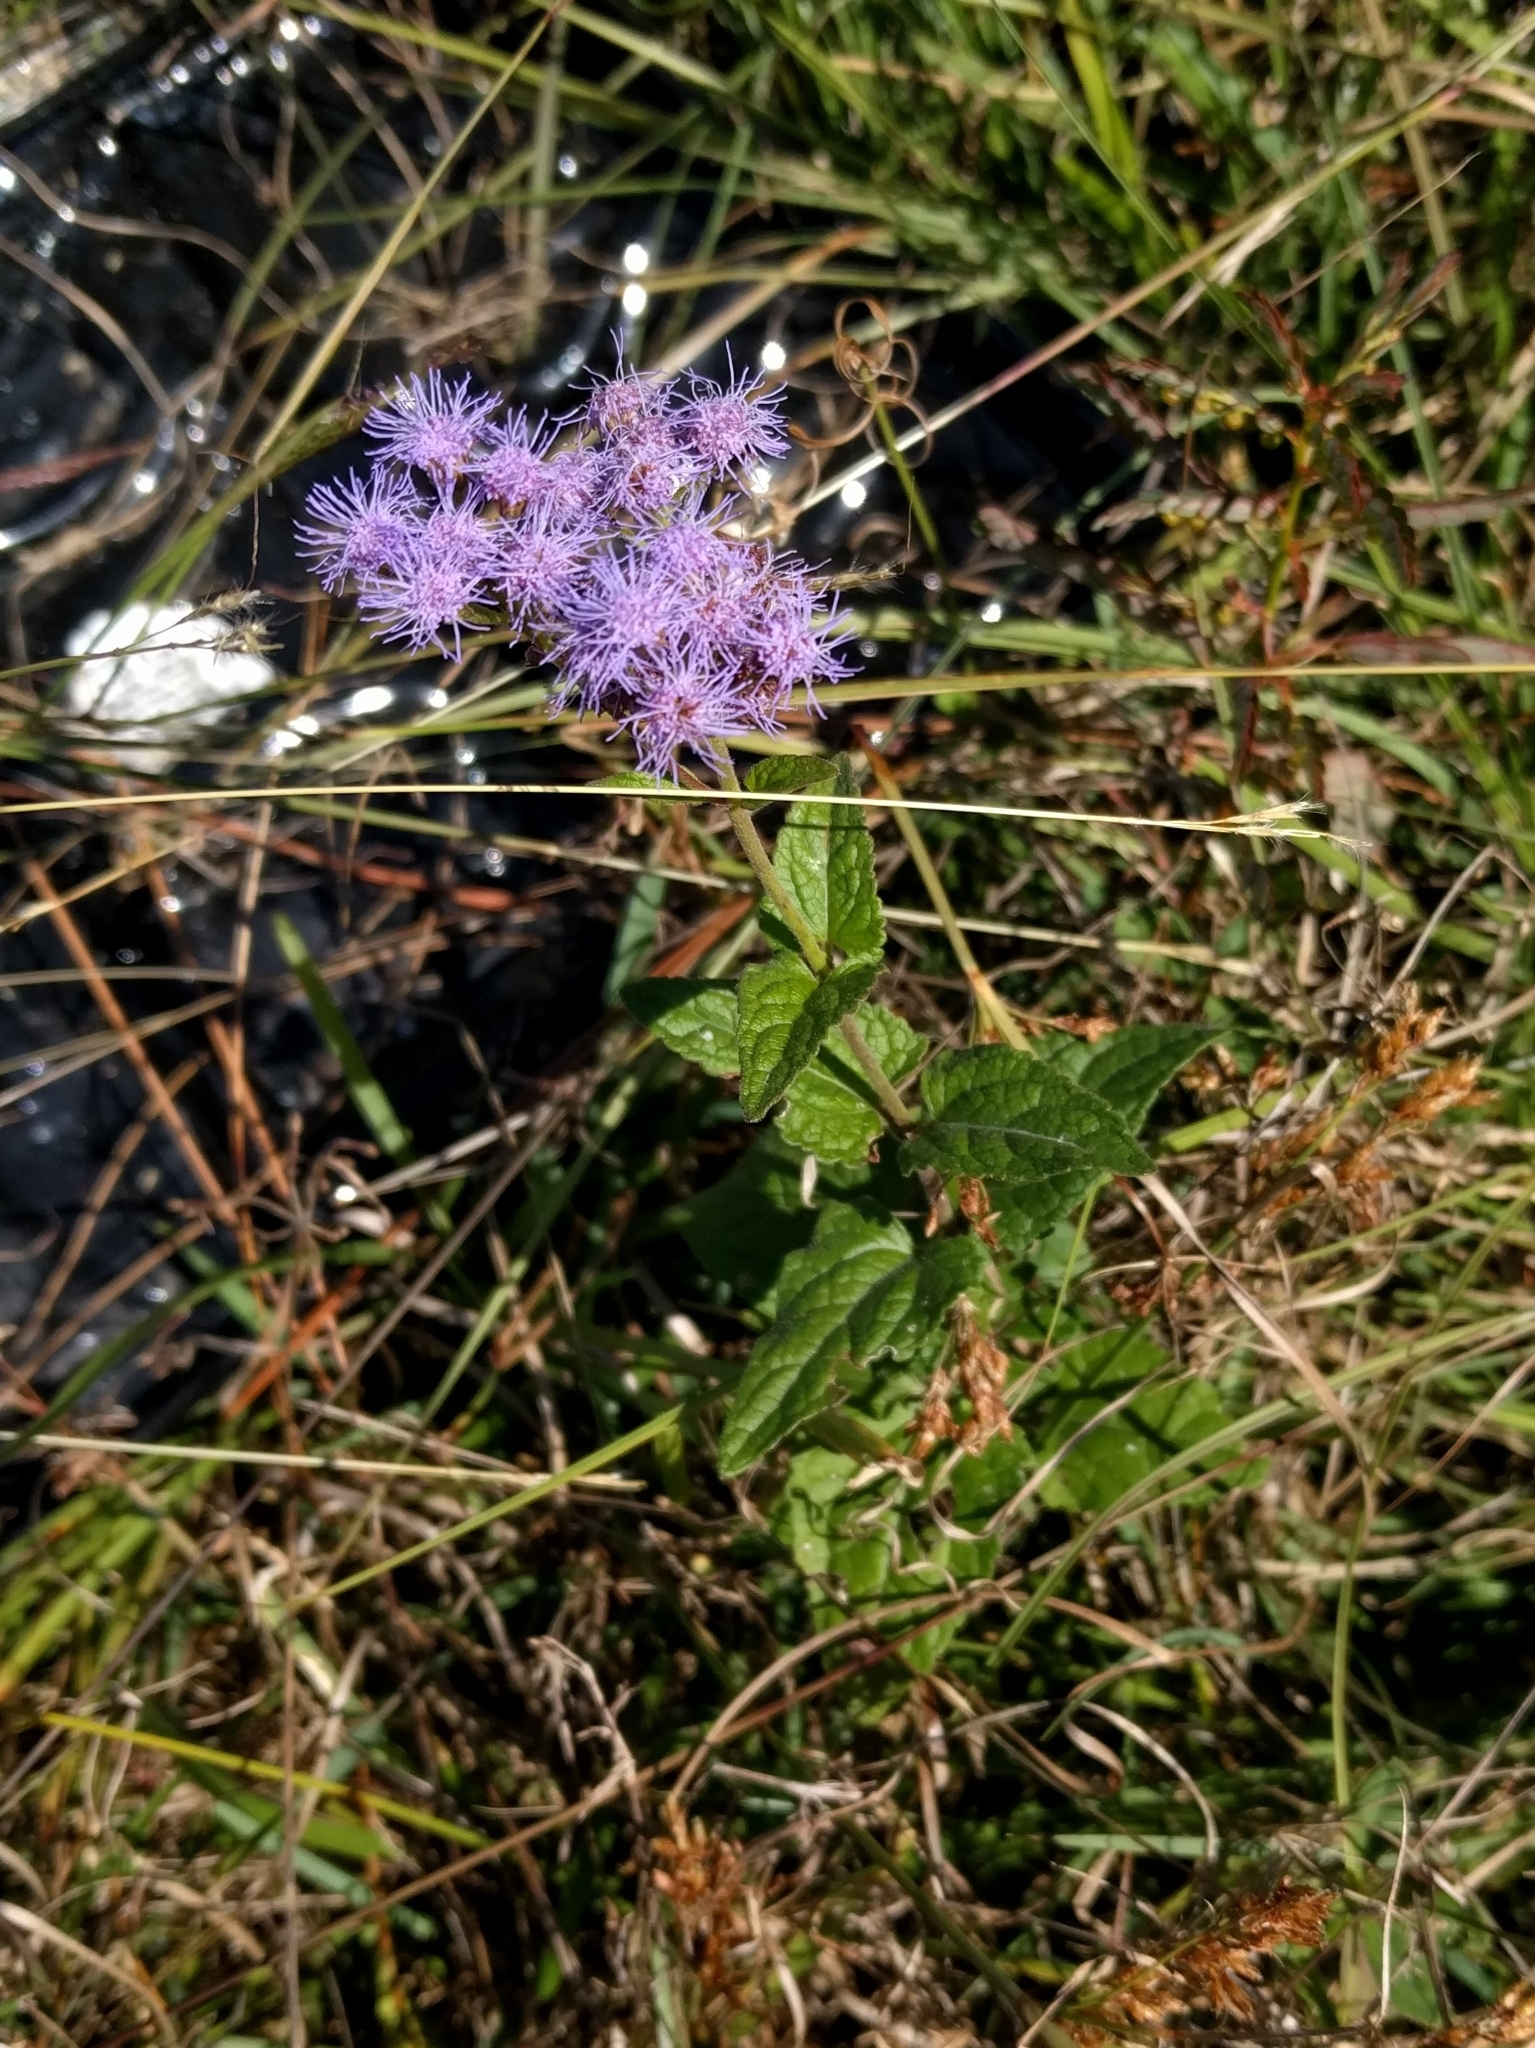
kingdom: Plantae
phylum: Tracheophyta
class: Magnoliopsida
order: Asterales
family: Asteraceae
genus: Conoclinium
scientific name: Conoclinium coelestinum
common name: Blue mistflower
